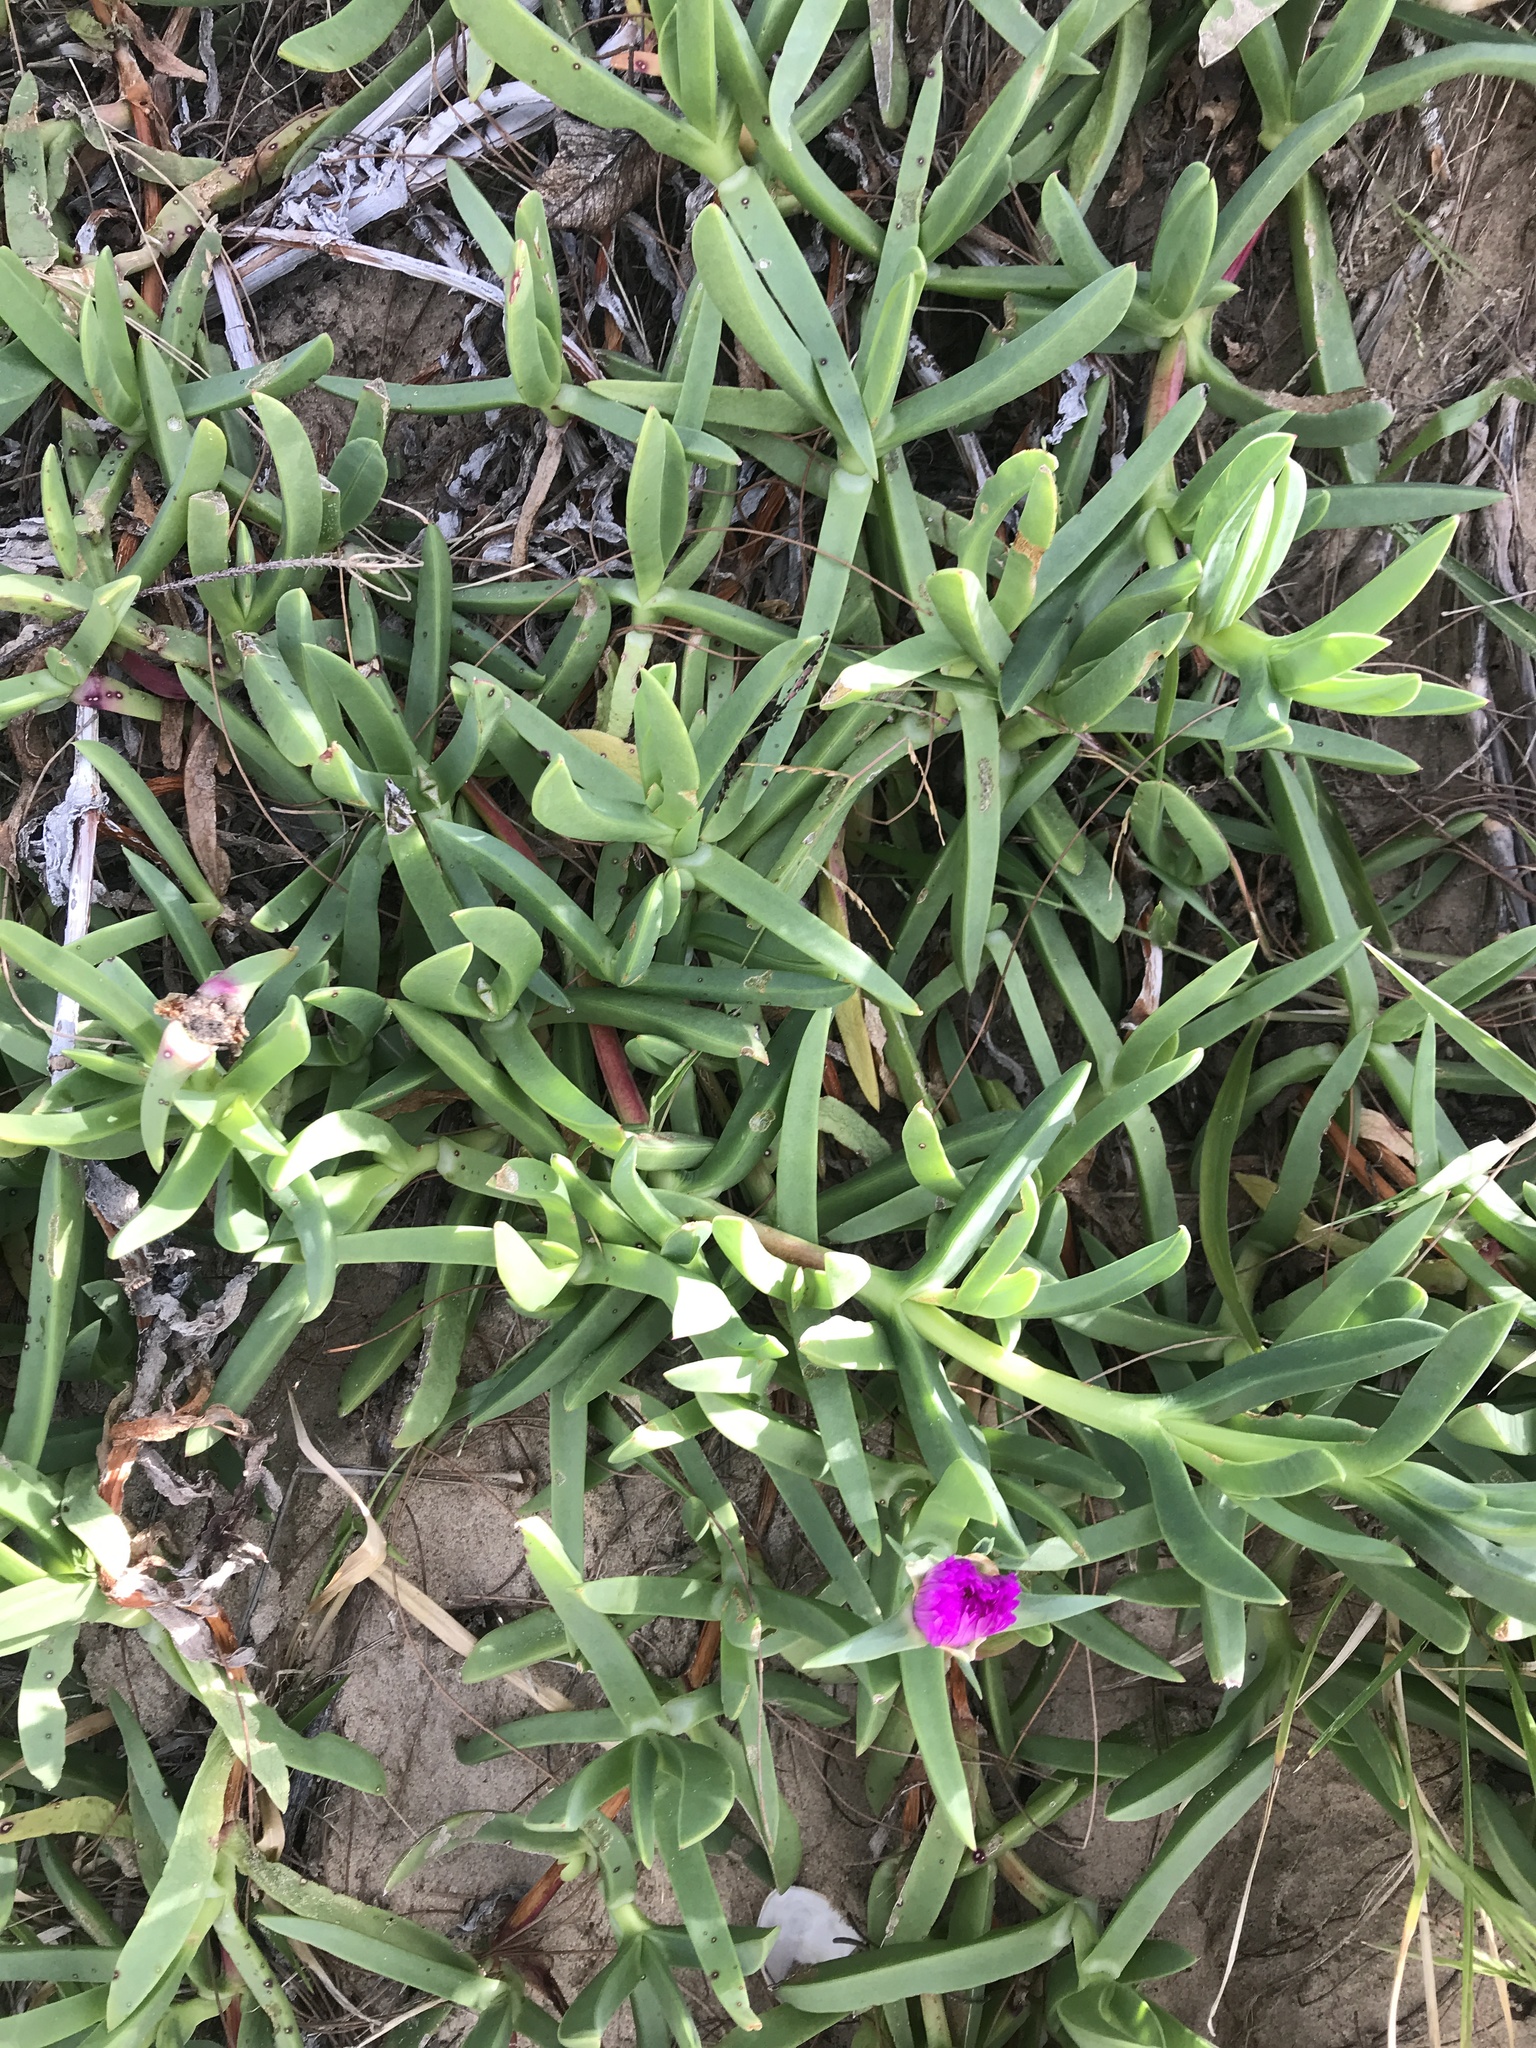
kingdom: Plantae
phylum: Tracheophyta
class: Magnoliopsida
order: Caryophyllales
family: Aizoaceae
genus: Carpobrotus
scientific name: Carpobrotus glaucescens
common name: Angular sea-fig
